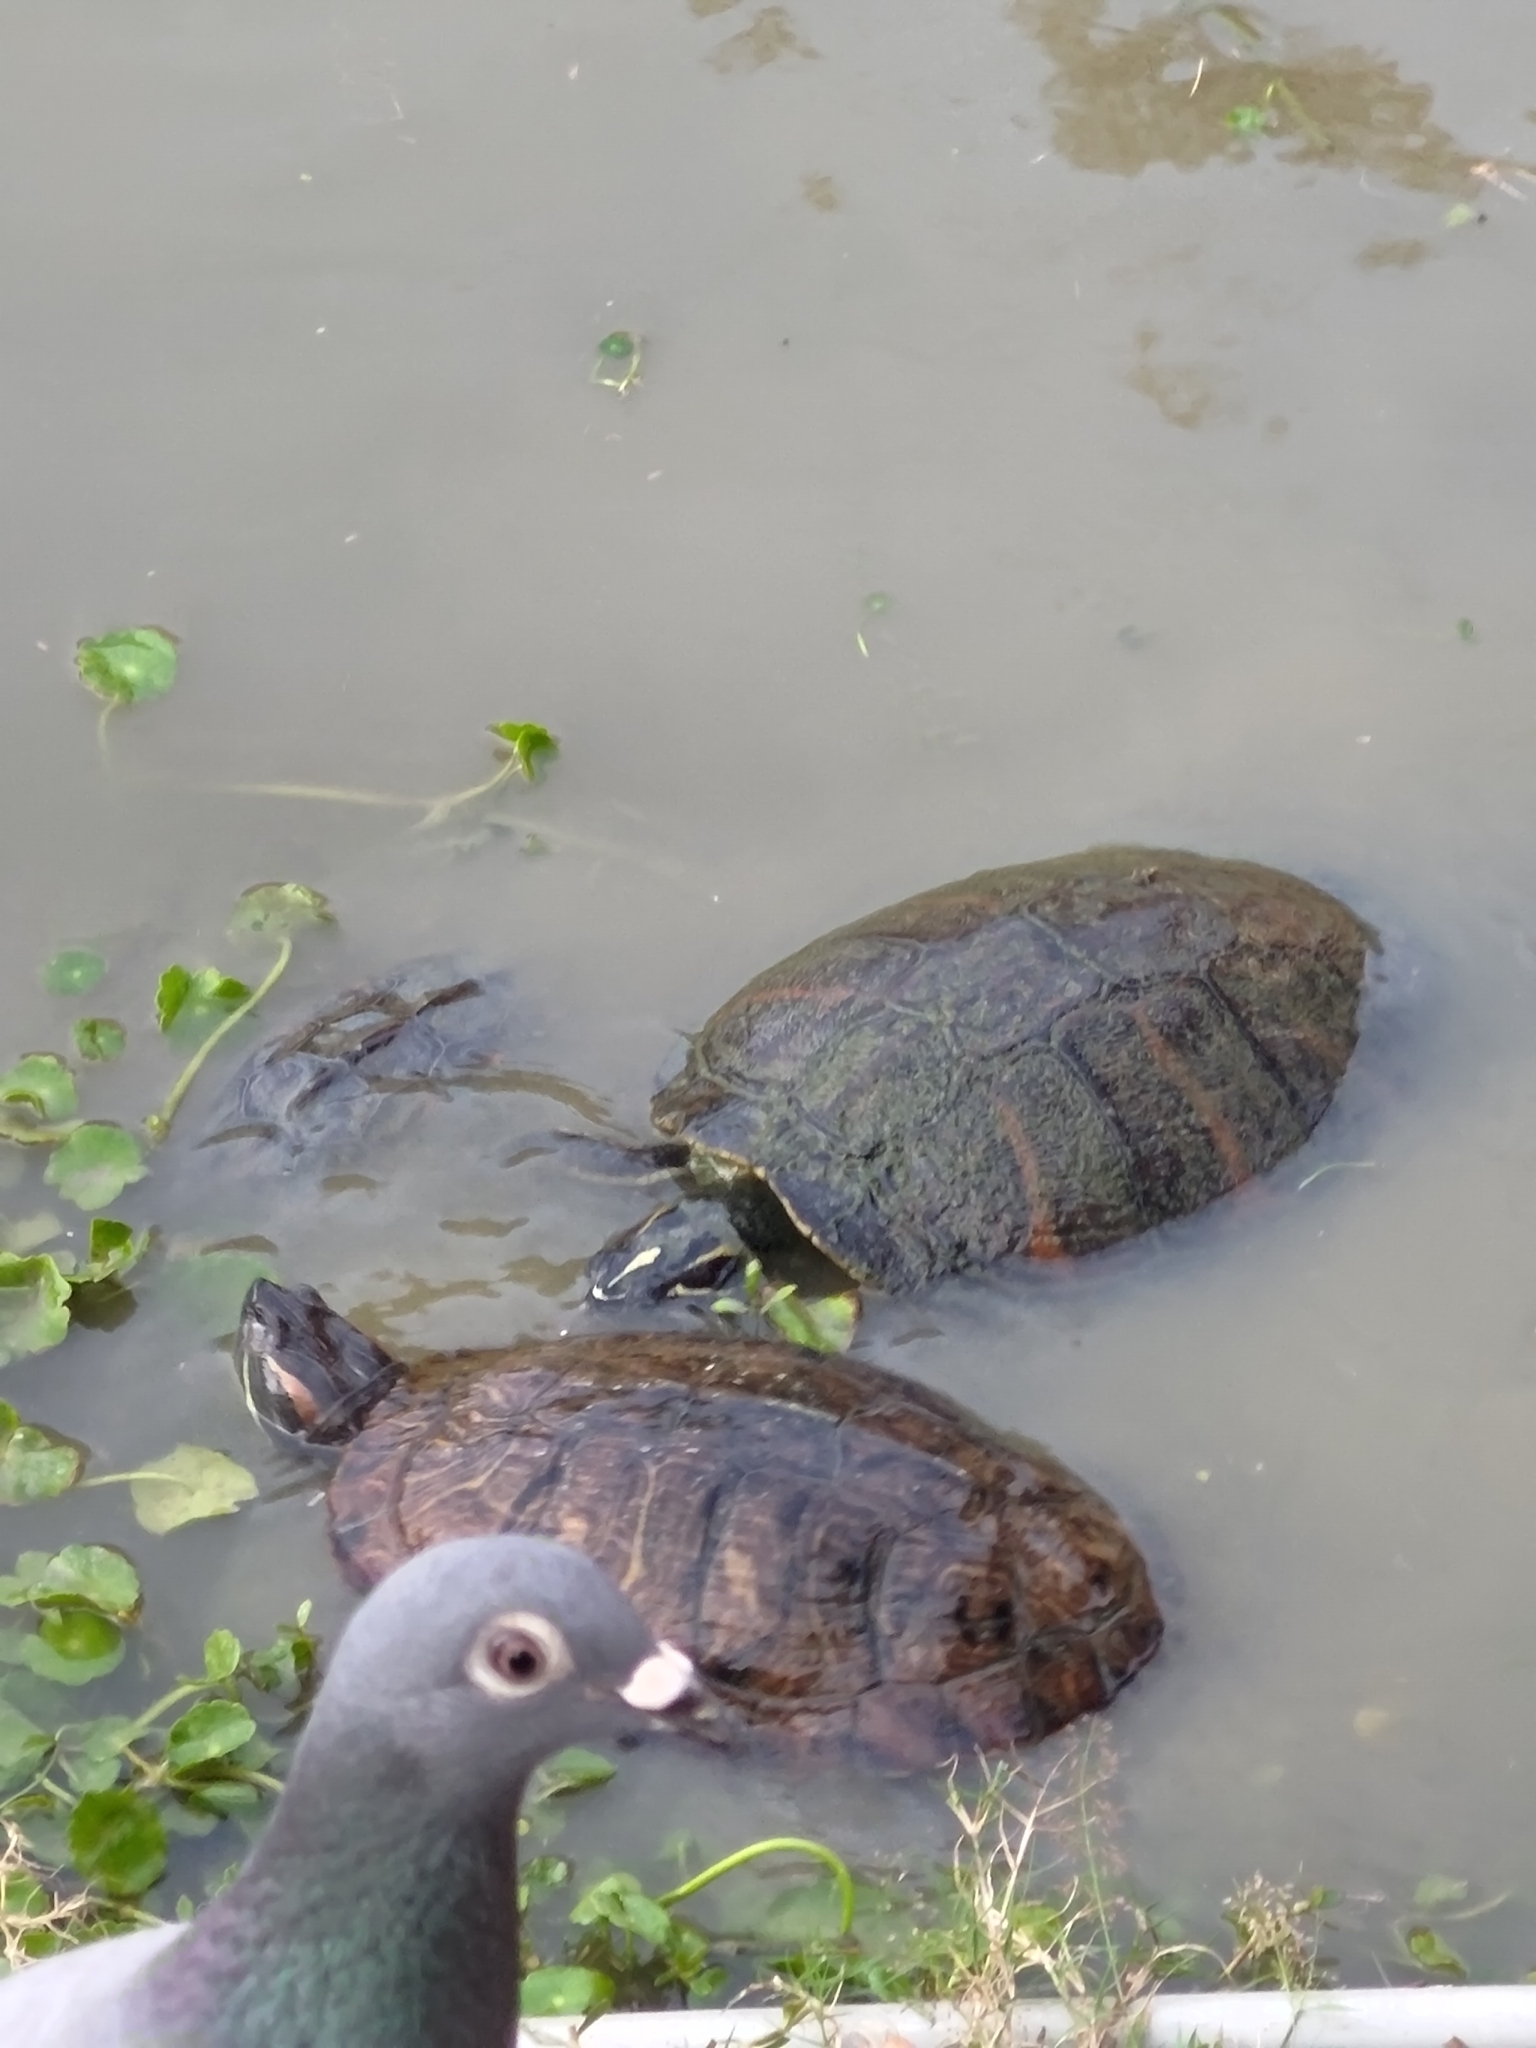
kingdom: Animalia
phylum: Chordata
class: Testudines
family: Emydidae
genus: Trachemys
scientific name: Trachemys scripta
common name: Slider
